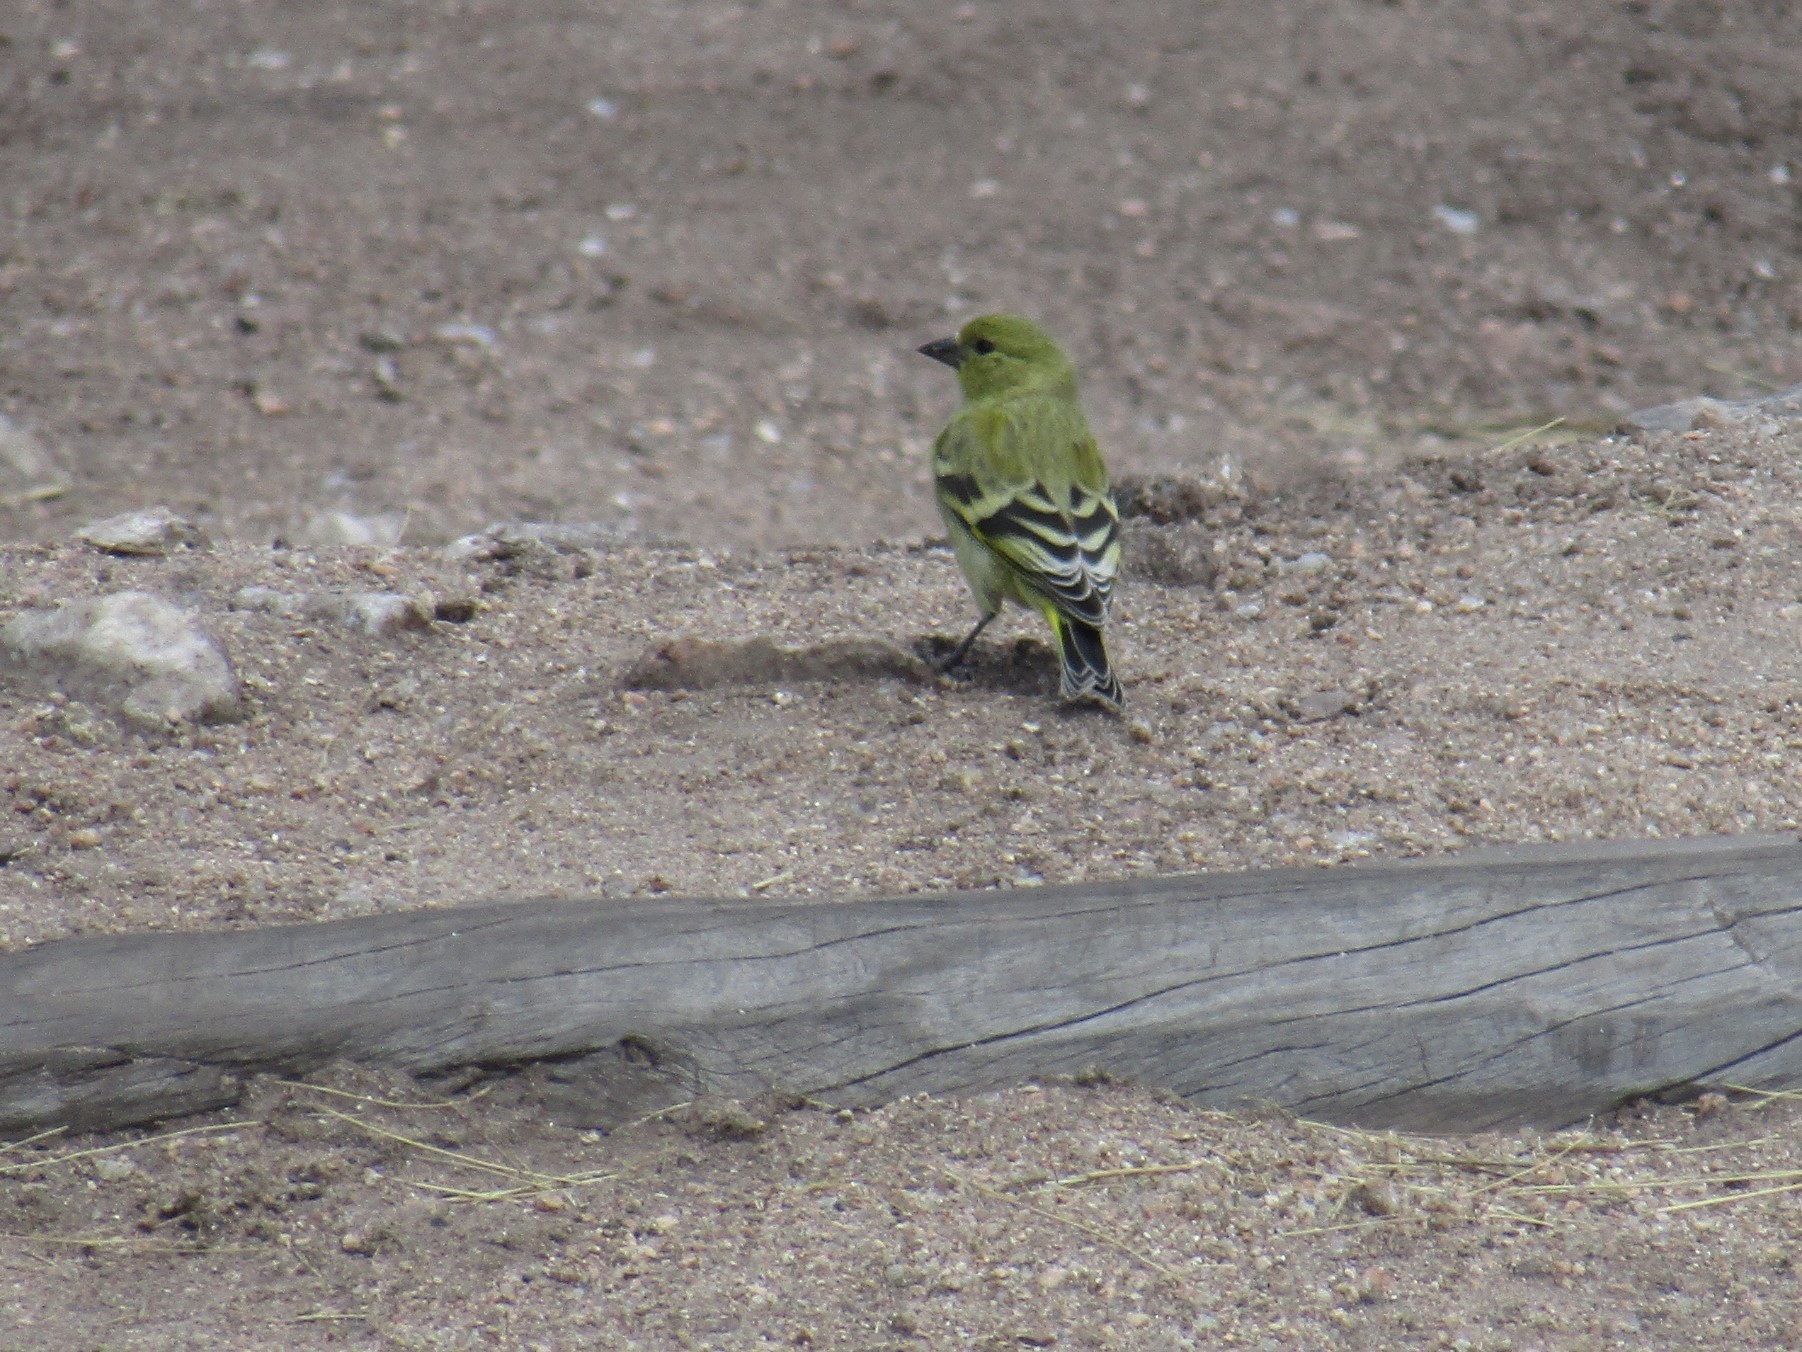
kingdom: Animalia
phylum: Chordata
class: Aves
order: Passeriformes
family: Fringillidae
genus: Spinus
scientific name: Spinus magellanicus
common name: Hooded siskin
